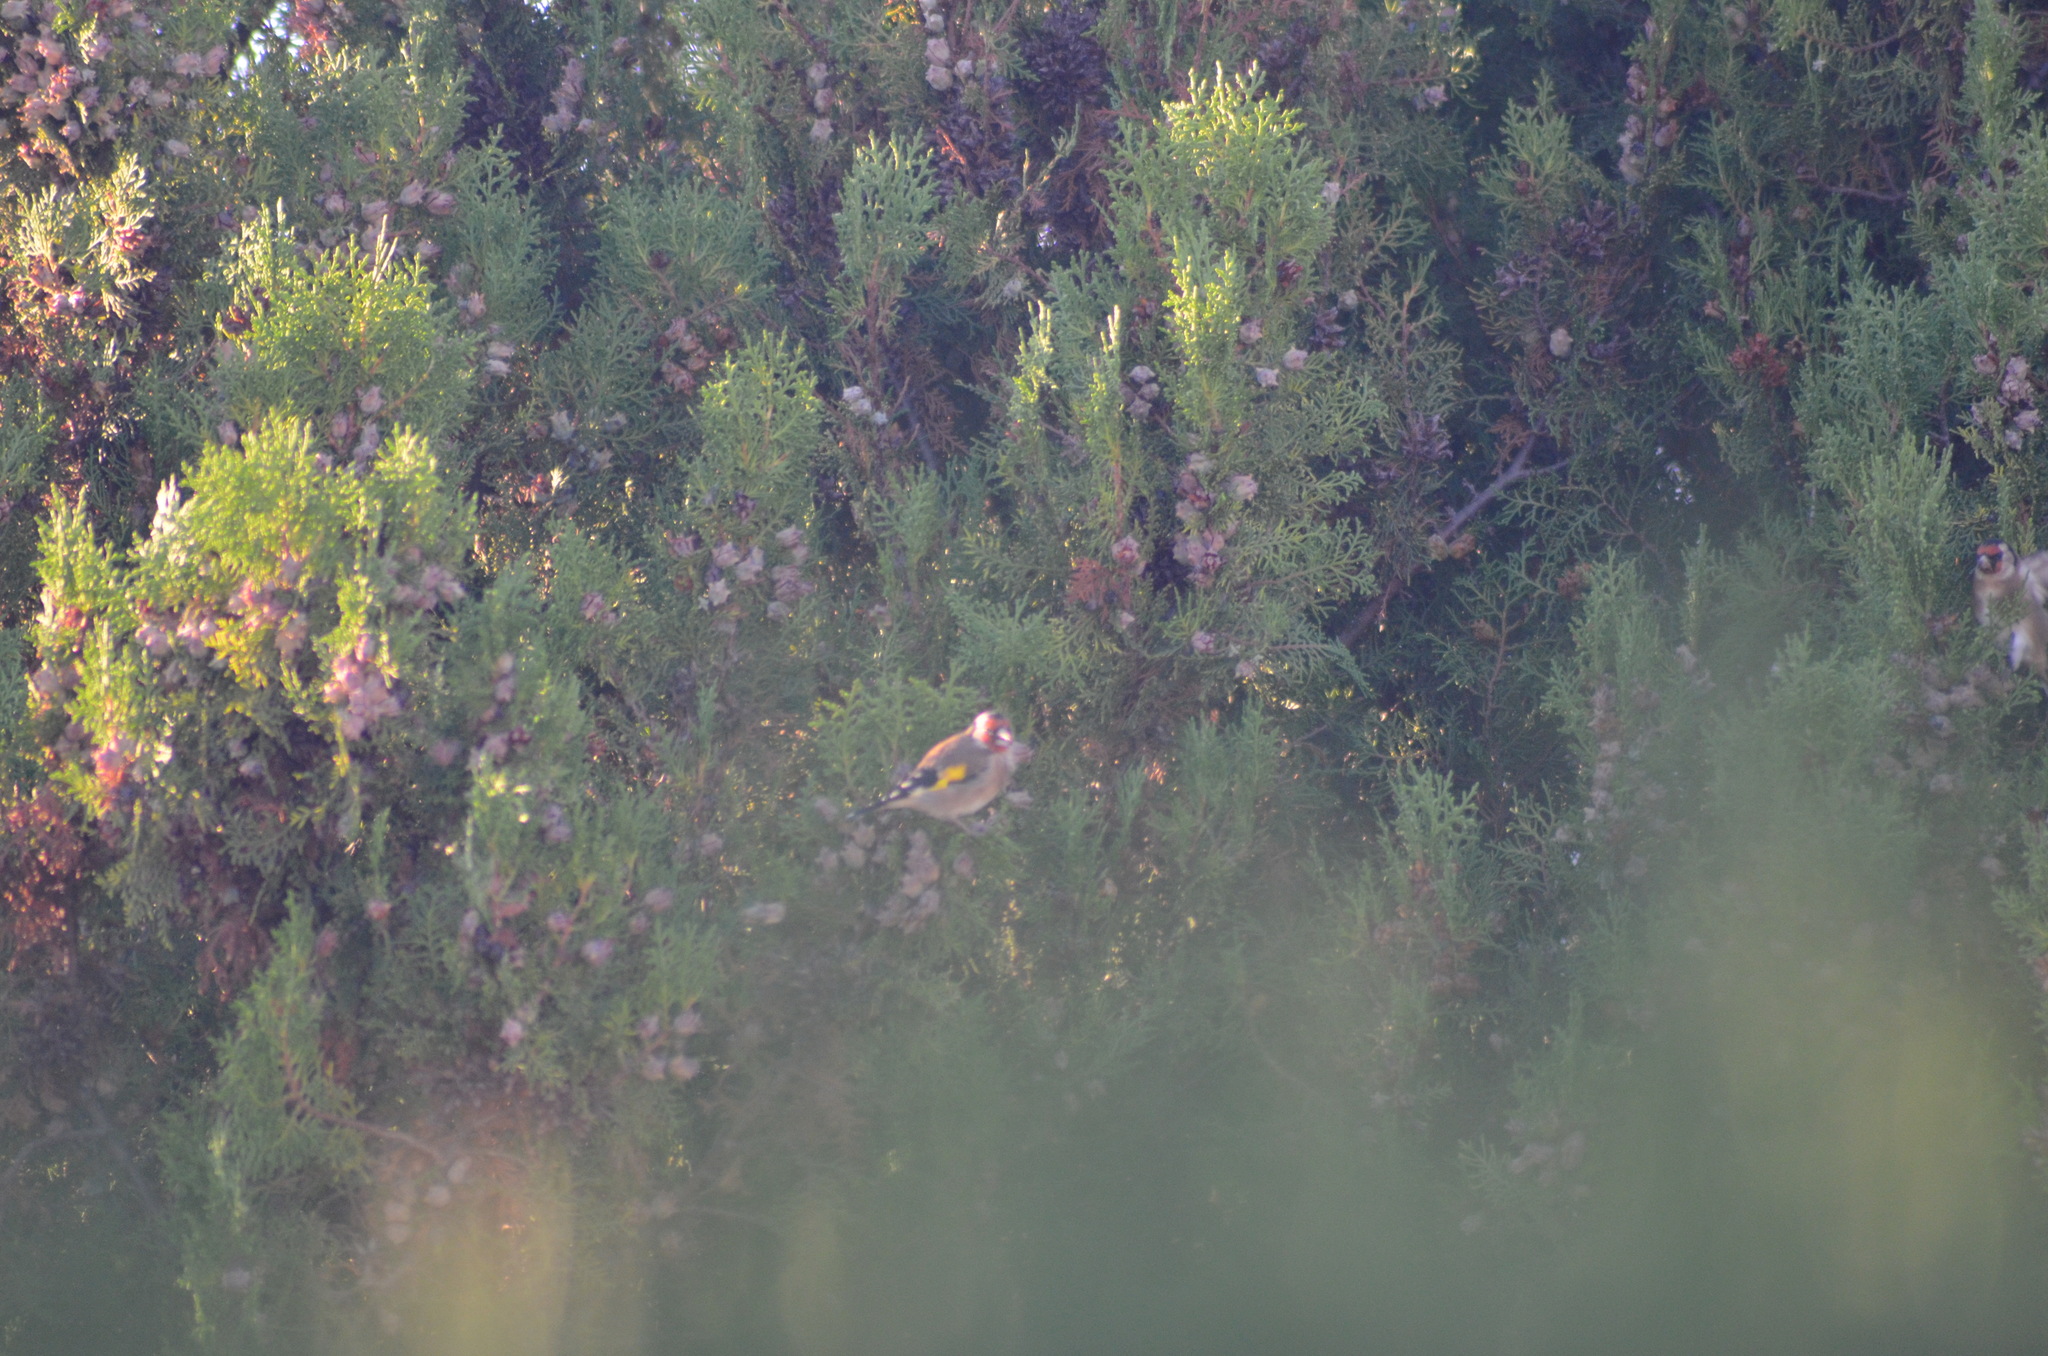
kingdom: Animalia
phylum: Chordata
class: Aves
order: Passeriformes
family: Fringillidae
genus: Carduelis
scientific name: Carduelis carduelis
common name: European goldfinch
